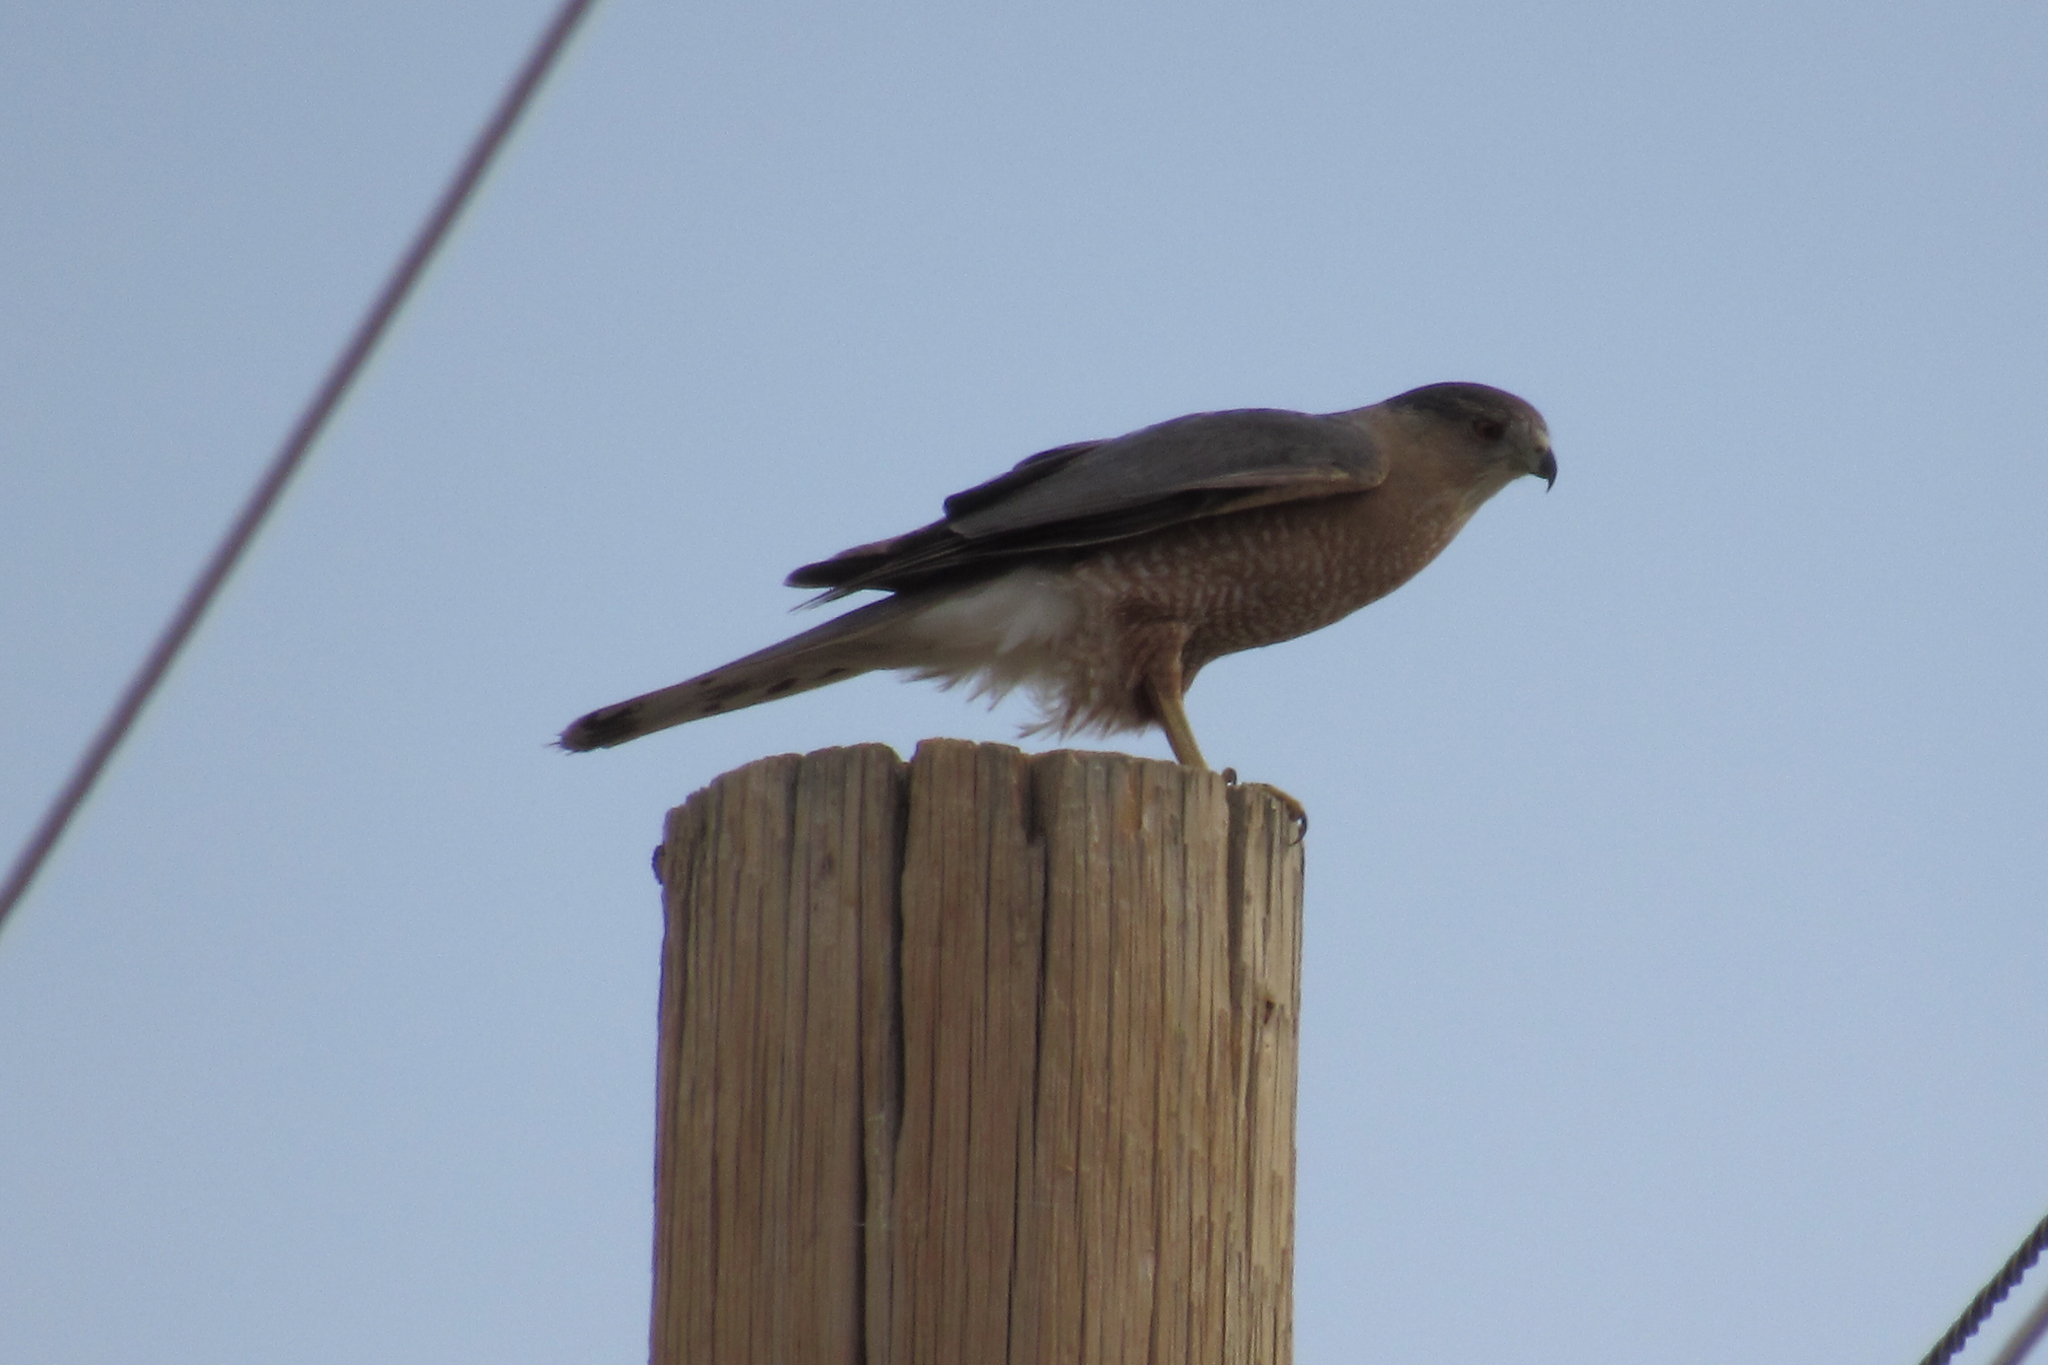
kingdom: Animalia
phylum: Chordata
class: Aves
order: Accipitriformes
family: Accipitridae
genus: Accipiter
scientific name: Accipiter cooperii
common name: Cooper's hawk
